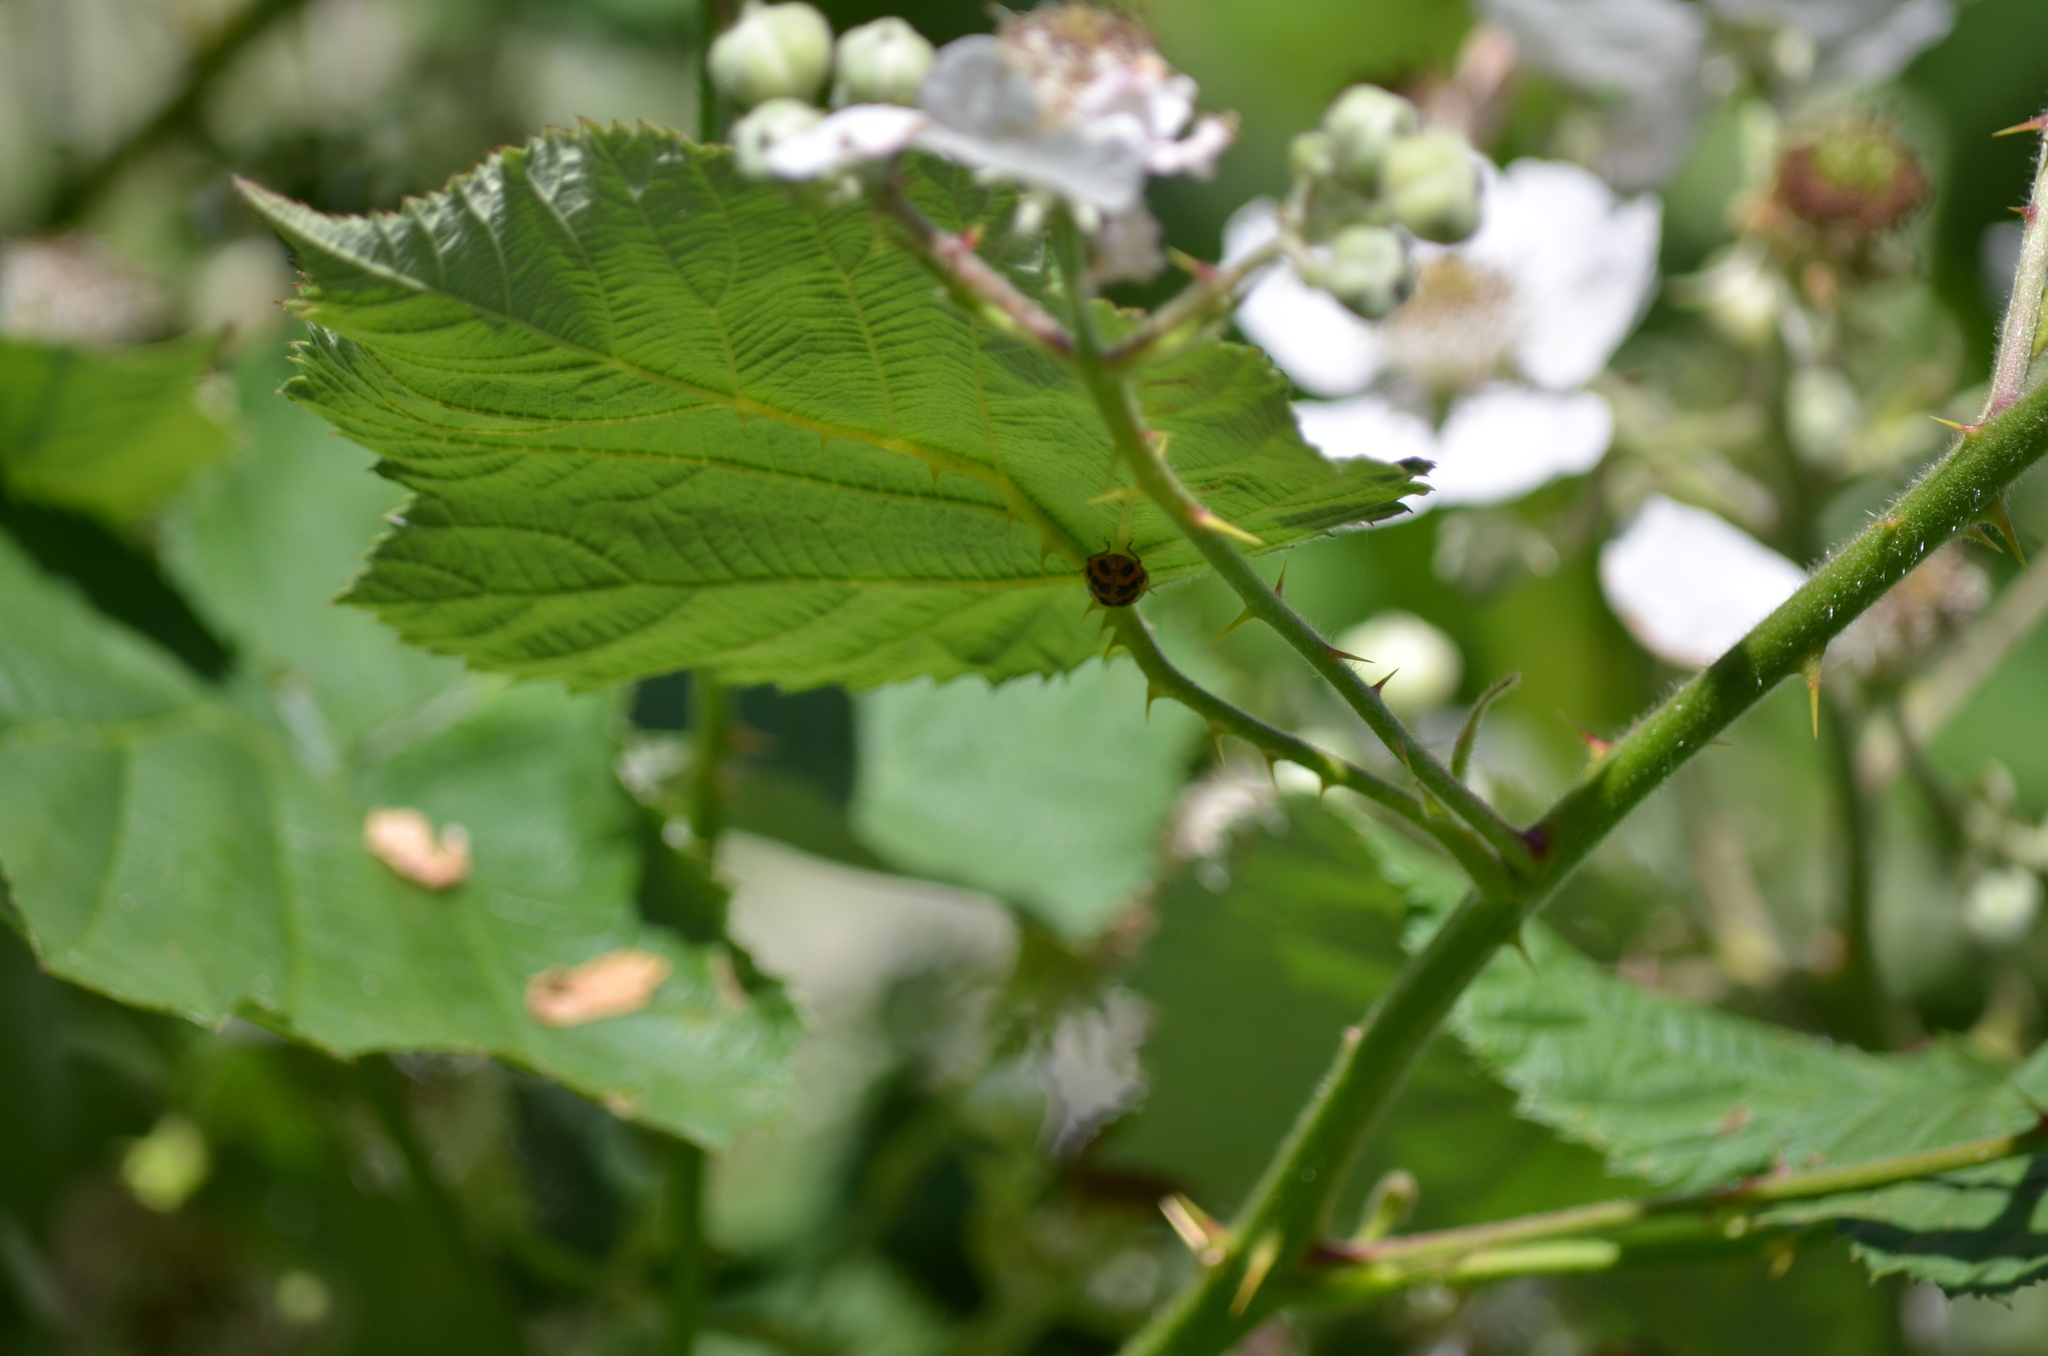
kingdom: Animalia
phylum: Arthropoda
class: Insecta
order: Coleoptera
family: Coccinellidae
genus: Harmonia
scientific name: Harmonia axyridis
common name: Harlequin ladybird
